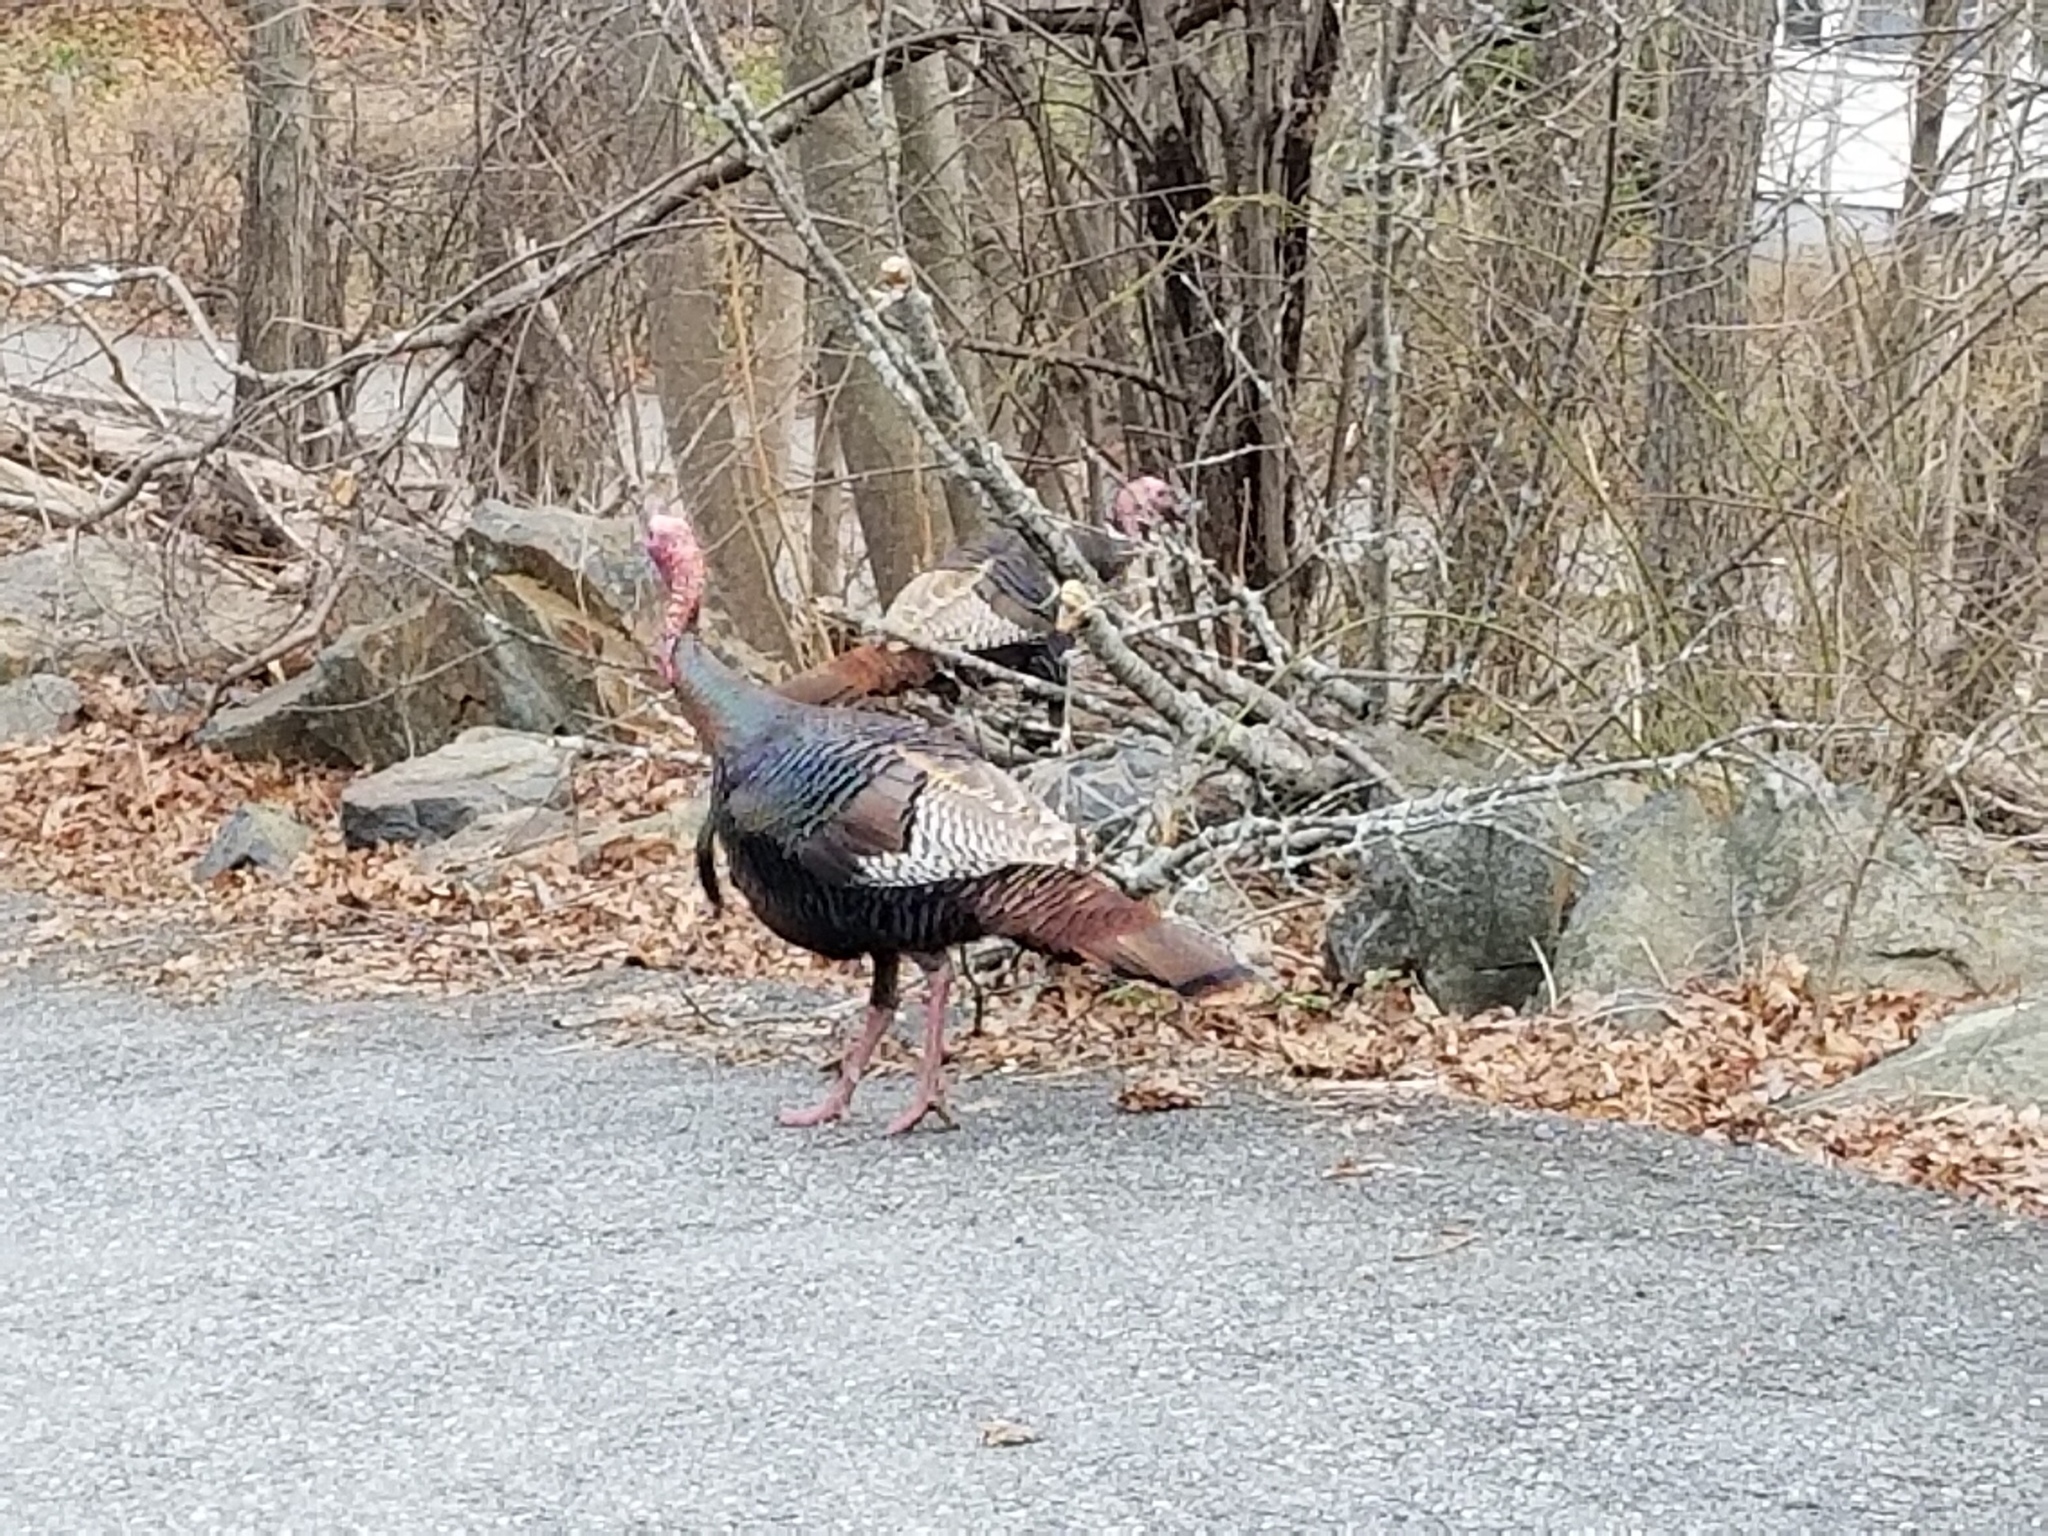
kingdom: Animalia
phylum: Chordata
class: Aves
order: Galliformes
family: Phasianidae
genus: Meleagris
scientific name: Meleagris gallopavo
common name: Wild turkey
